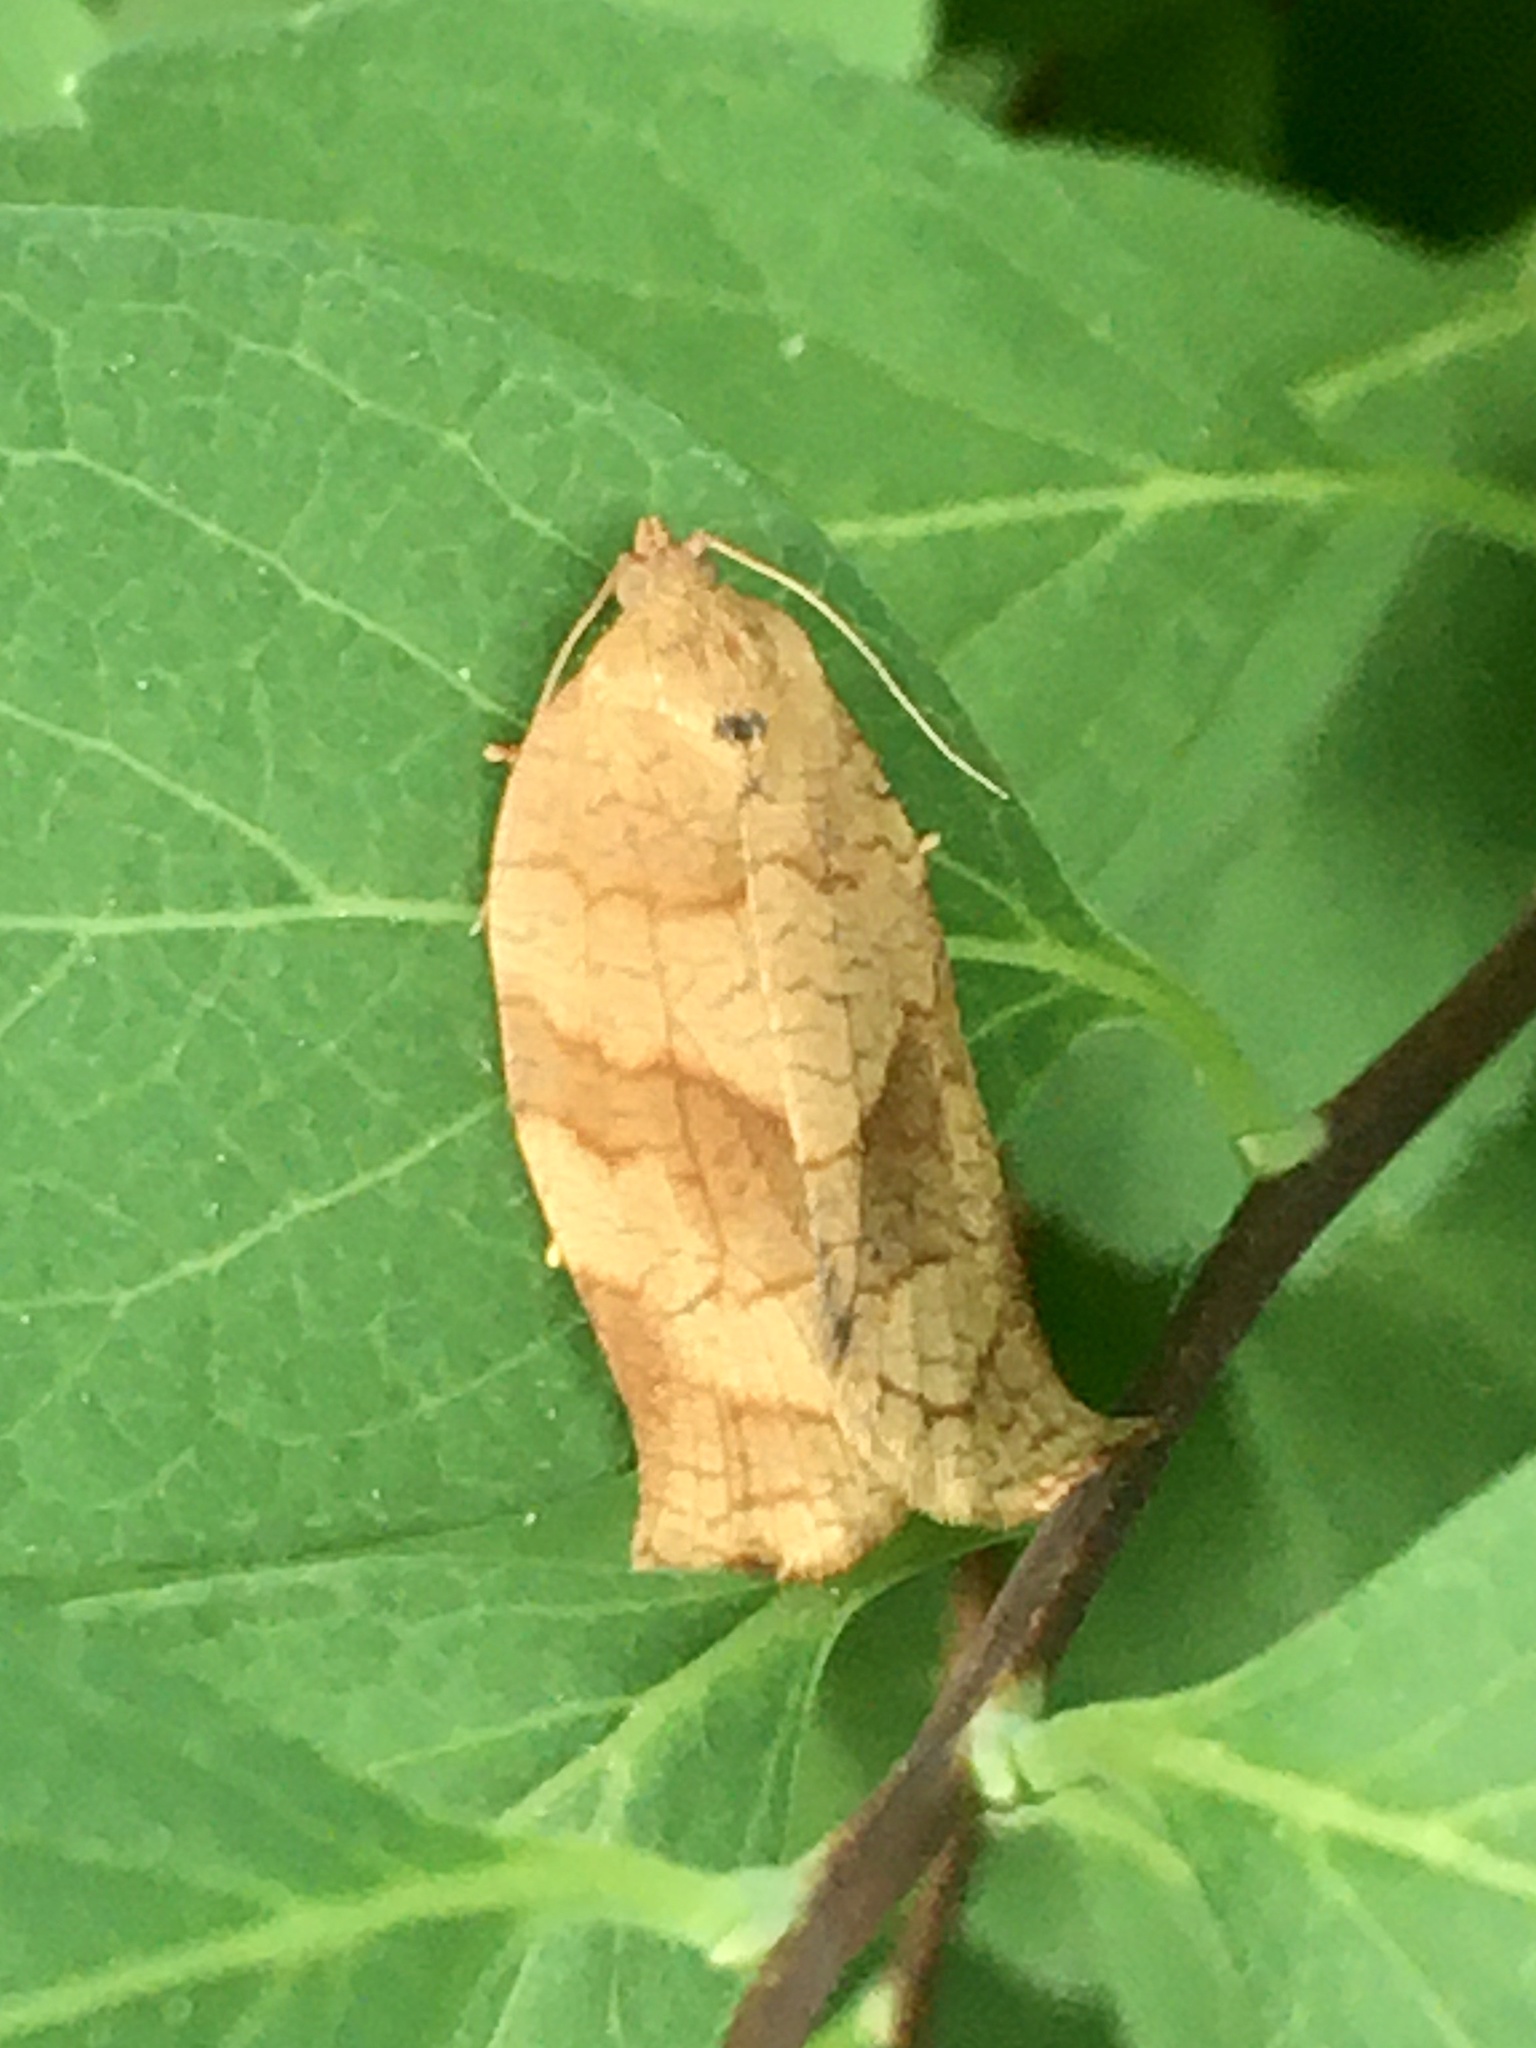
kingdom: Animalia
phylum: Arthropoda
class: Insecta
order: Lepidoptera
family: Tortricidae
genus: Choristoneura
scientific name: Choristoneura rosaceana
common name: Oblique-banded leafroller moth
